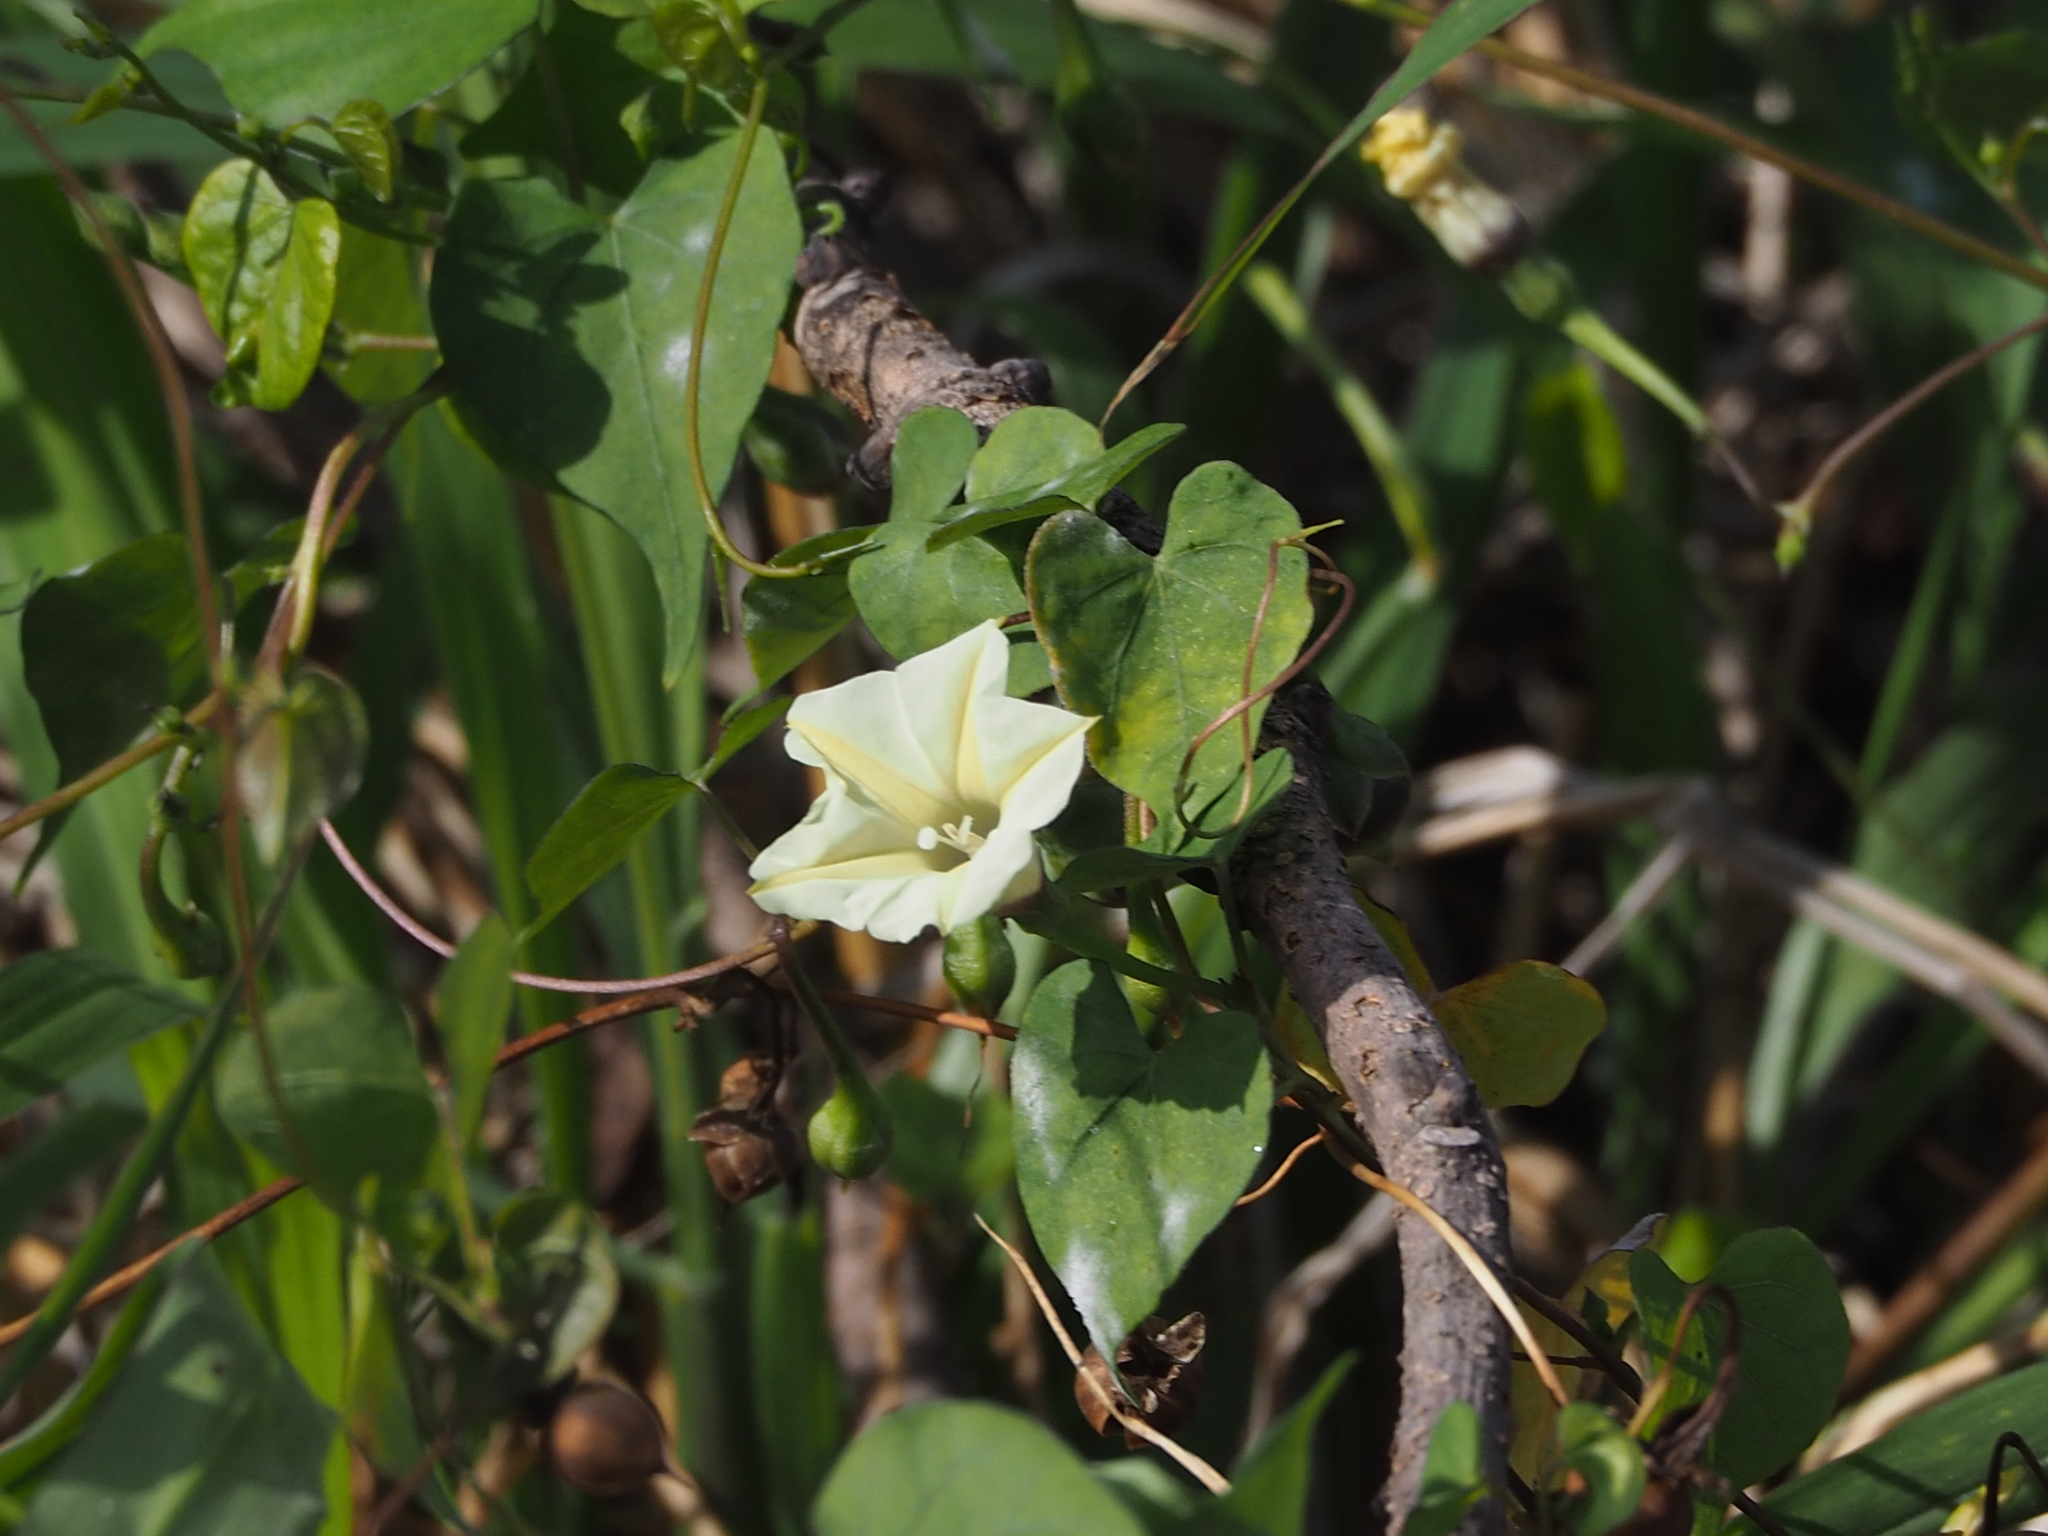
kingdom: Plantae
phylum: Tracheophyta
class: Magnoliopsida
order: Solanales
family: Convolvulaceae
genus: Ipomoea
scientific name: Ipomoea obscura
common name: Obscure morning-glory
